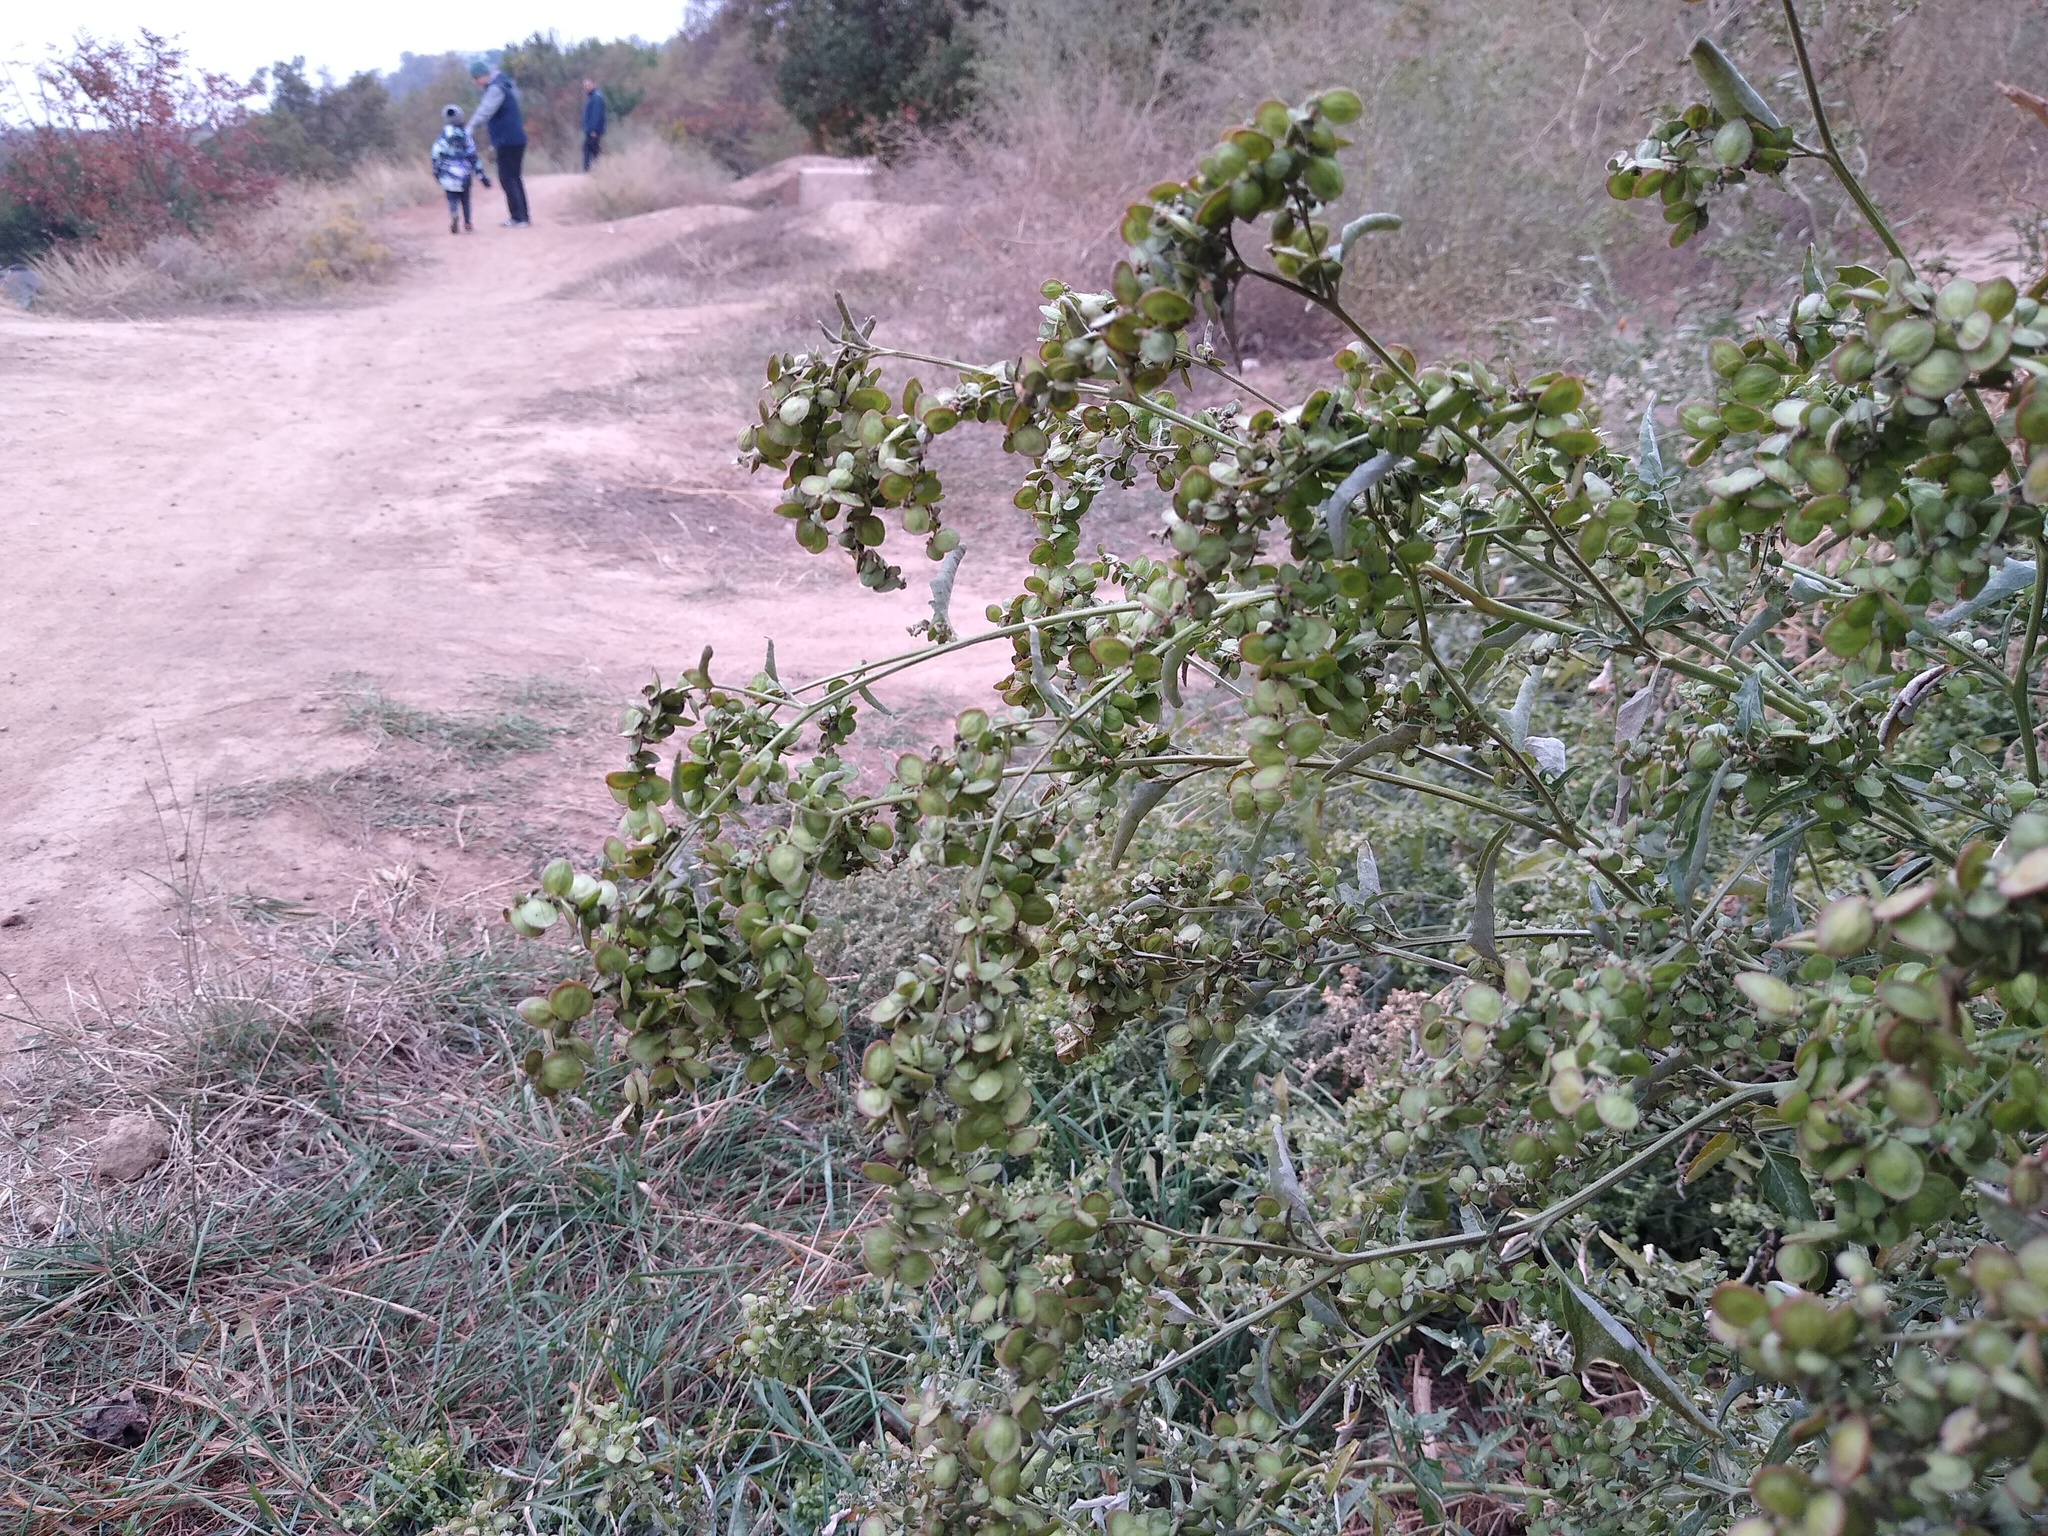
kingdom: Plantae
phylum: Tracheophyta
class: Magnoliopsida
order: Caryophyllales
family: Amaranthaceae
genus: Atriplex
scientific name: Atriplex sagittata
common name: Purple orache
